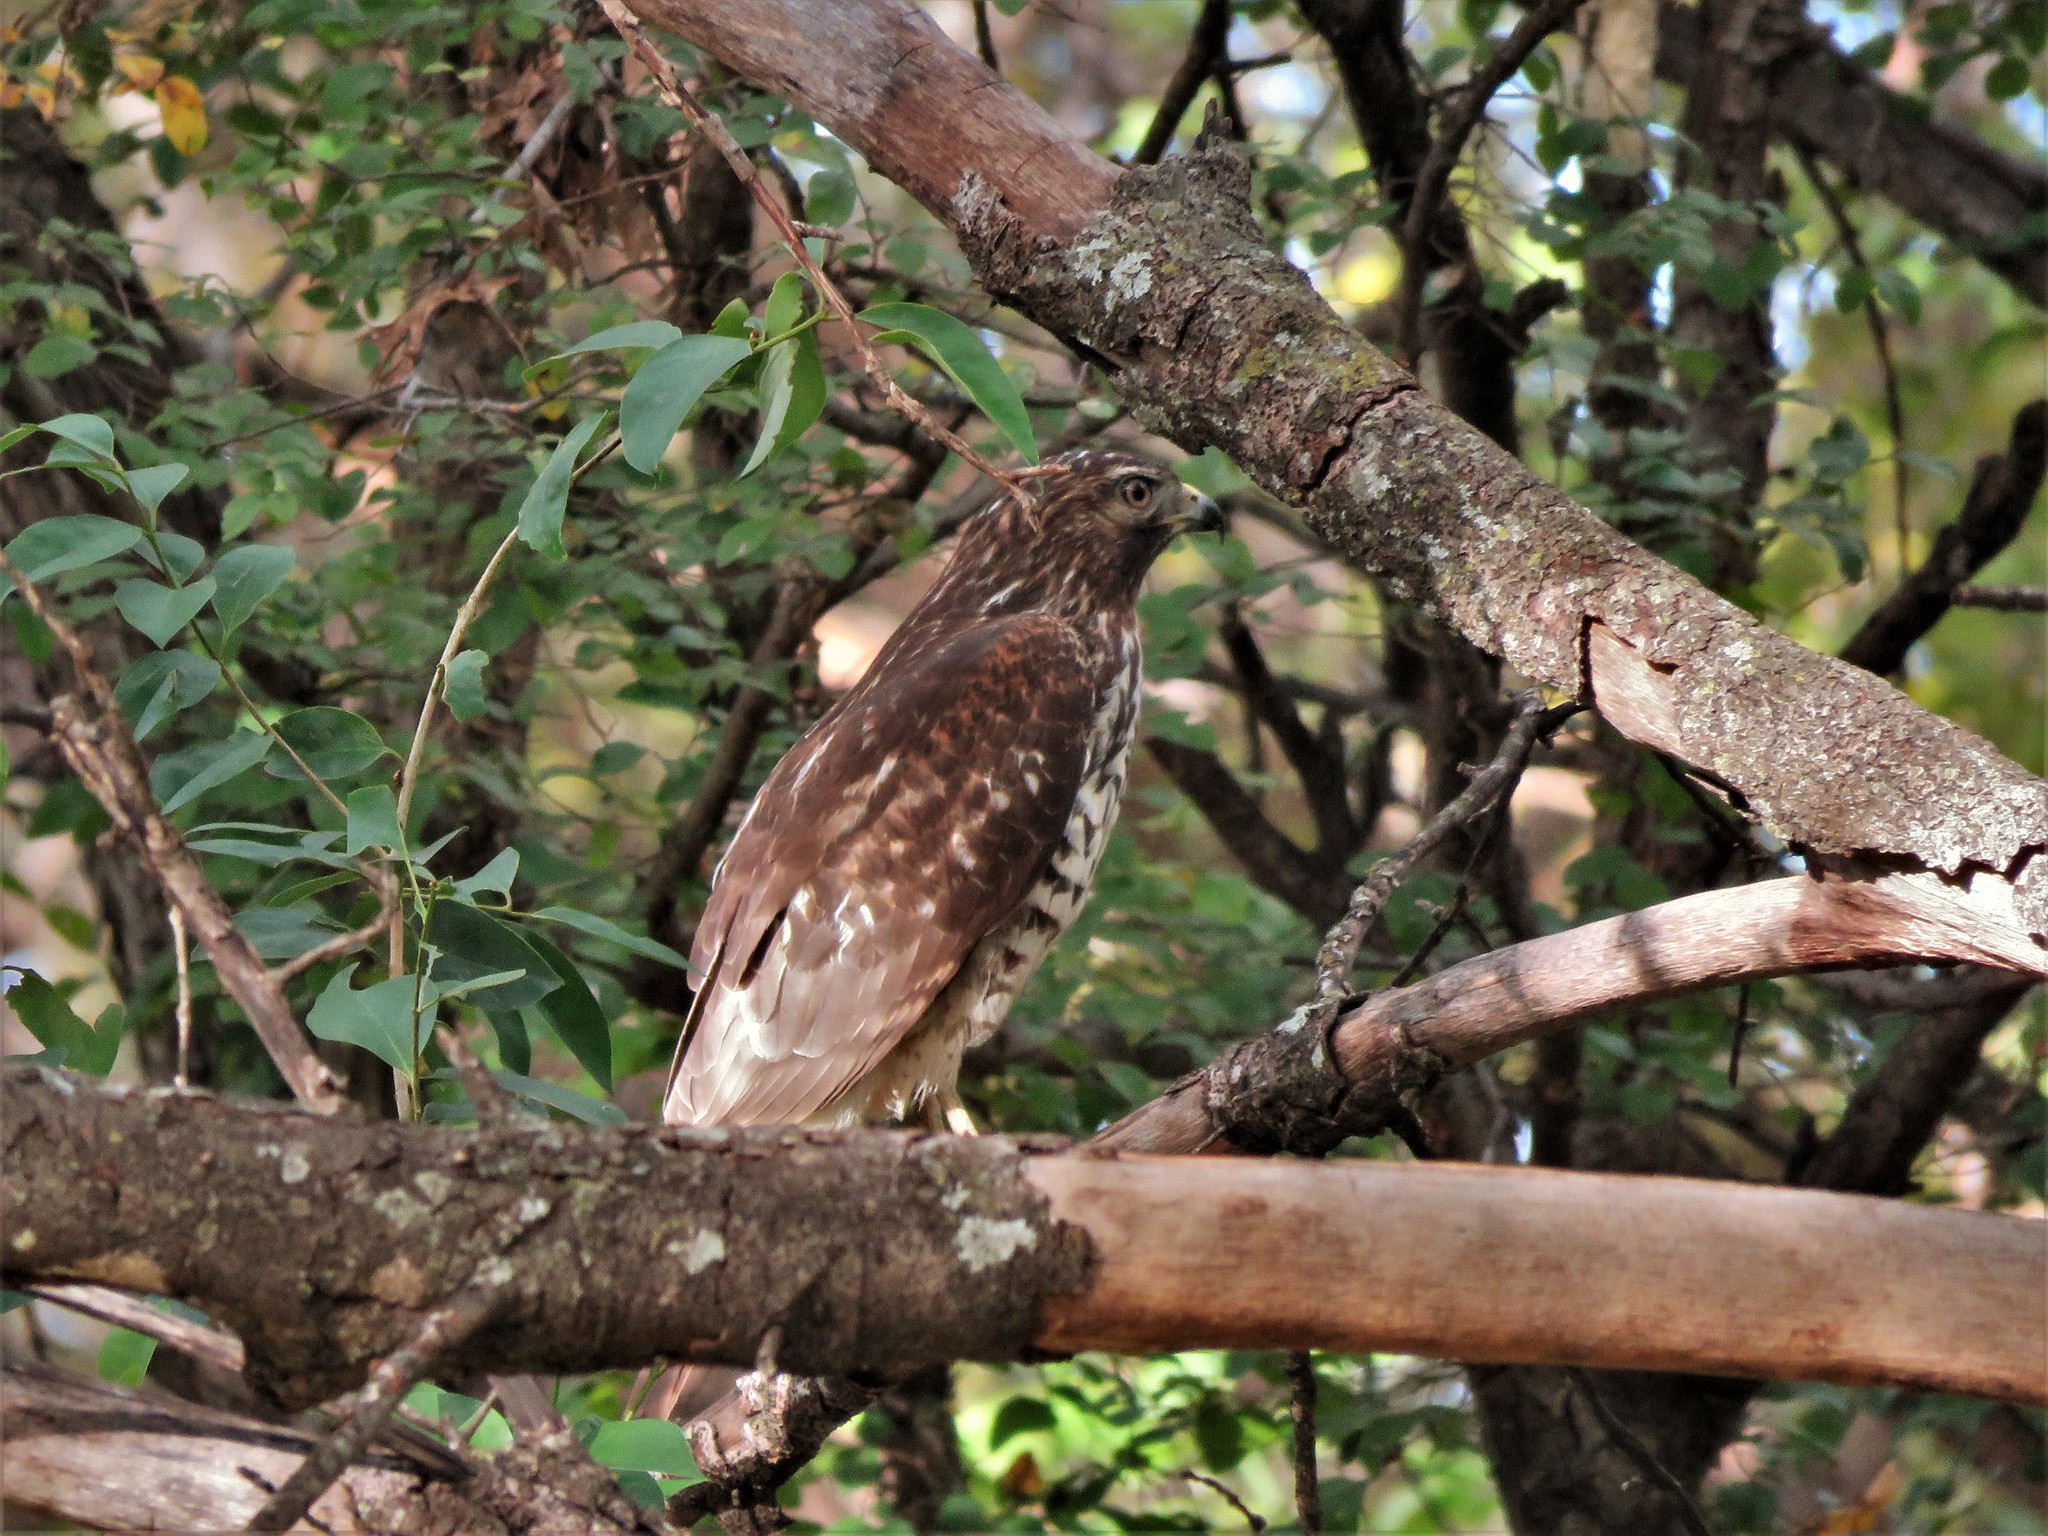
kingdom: Animalia
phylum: Chordata
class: Aves
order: Accipitriformes
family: Accipitridae
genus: Buteo
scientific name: Buteo lineatus
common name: Red-shouldered hawk
